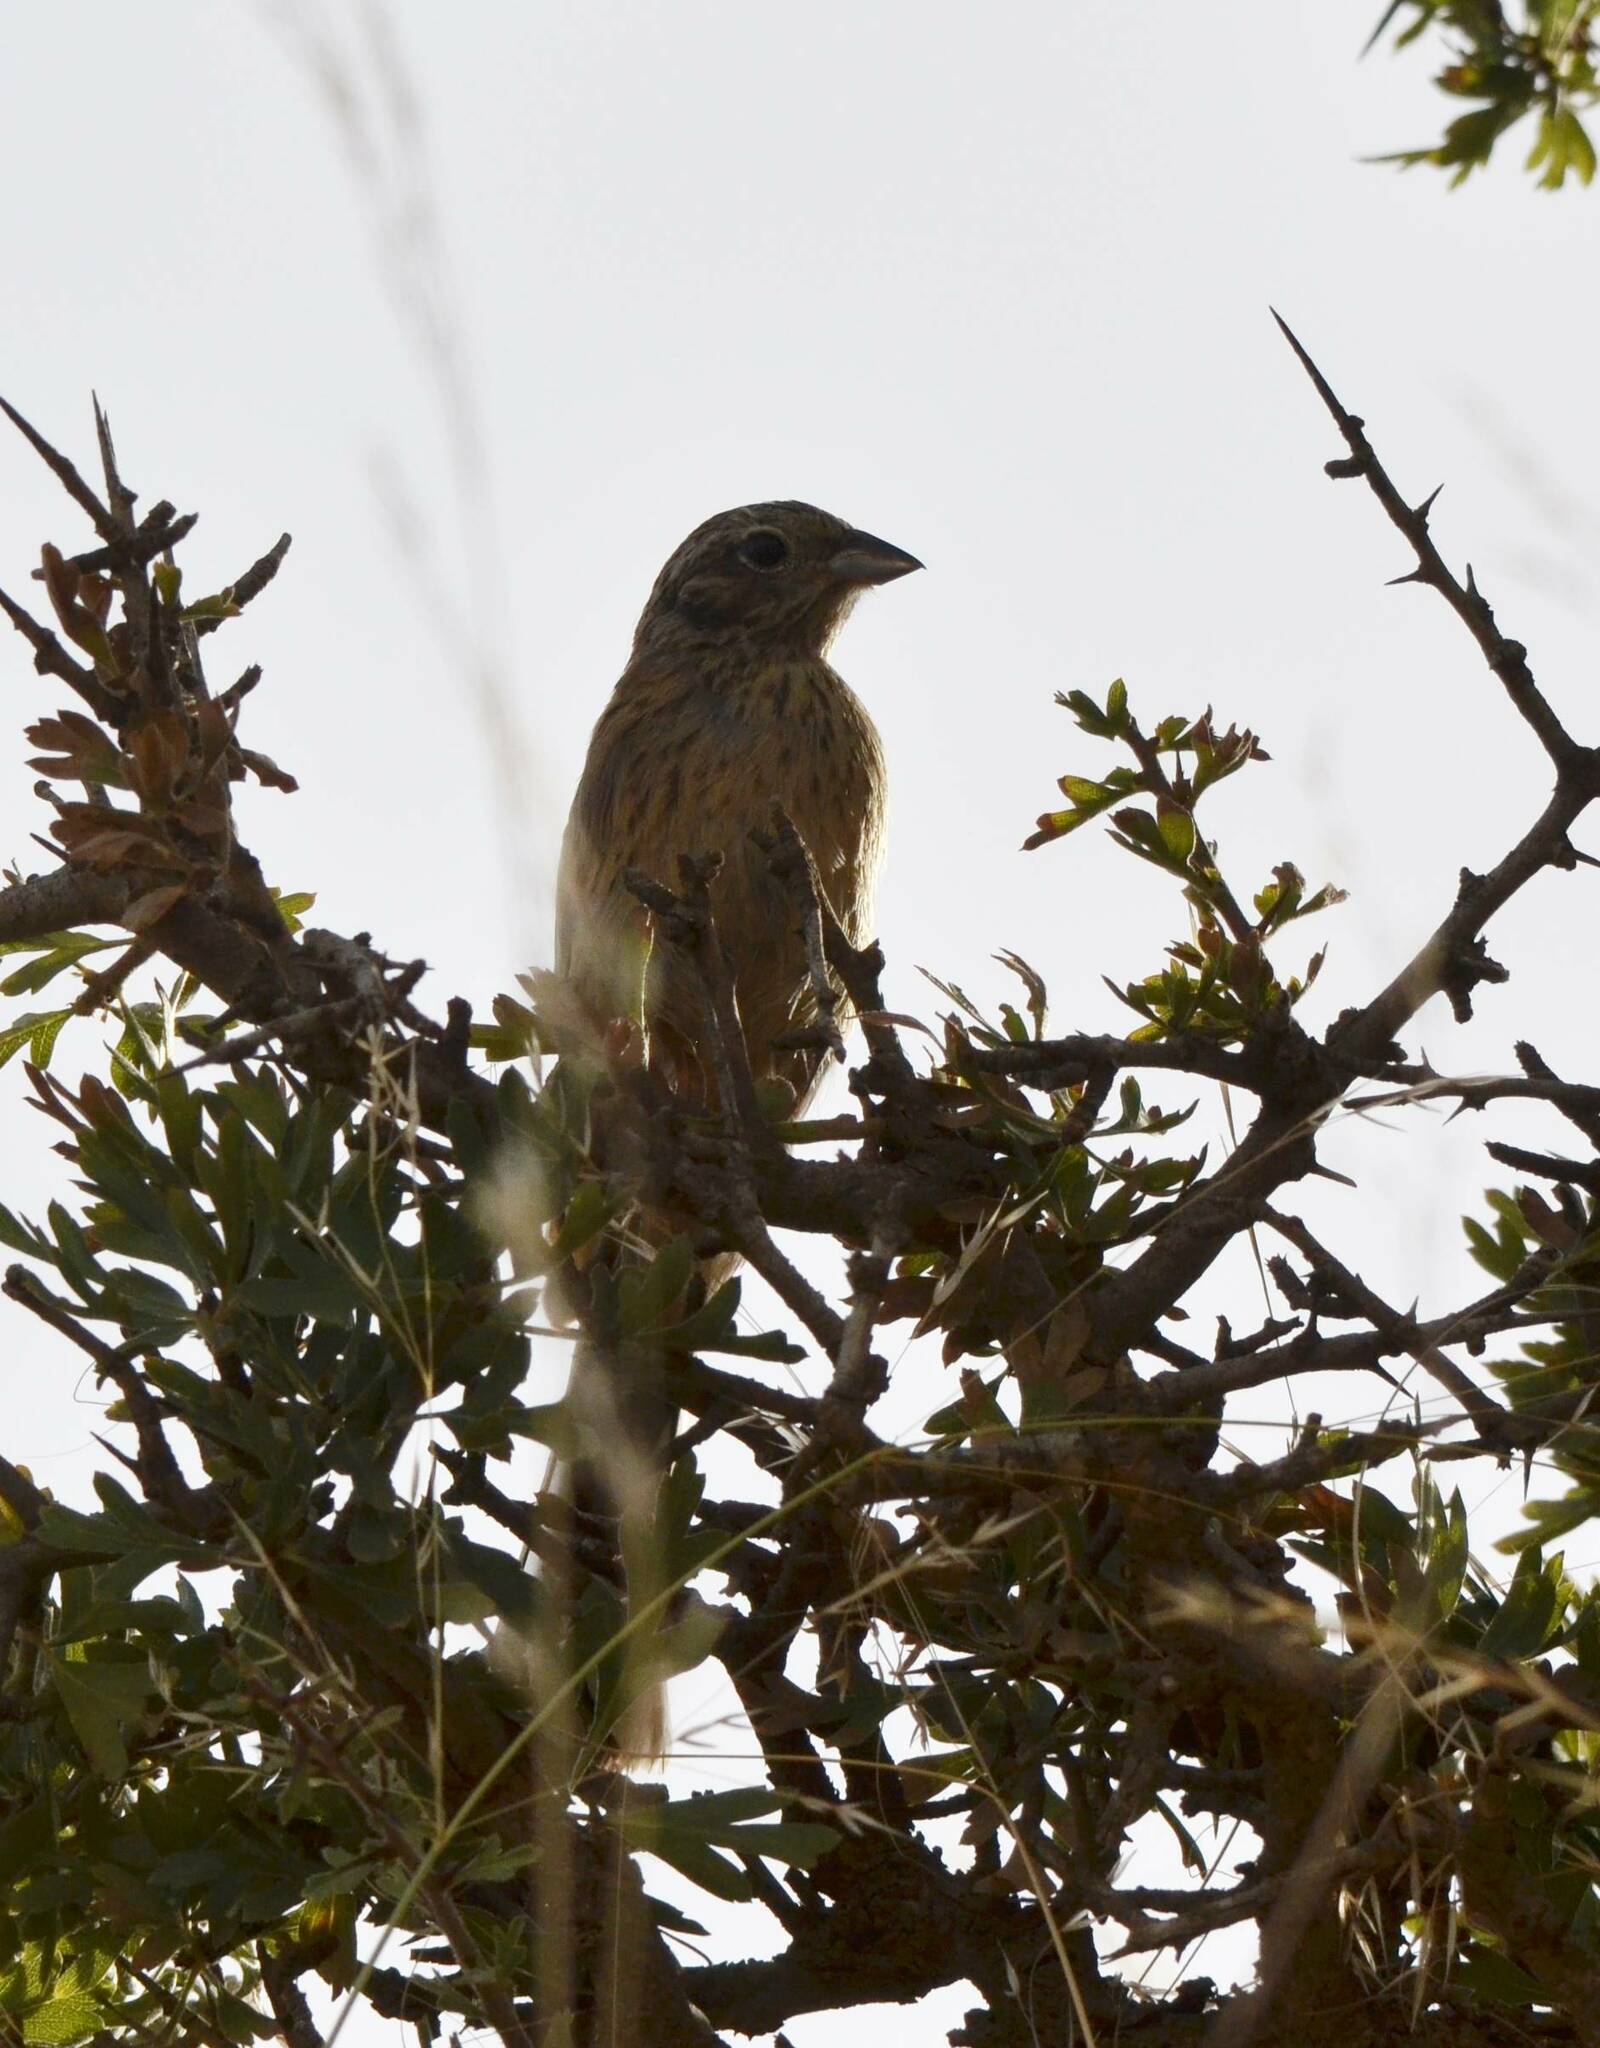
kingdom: Animalia
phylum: Chordata
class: Aves
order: Passeriformes
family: Emberizidae
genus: Emberiza
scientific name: Emberiza cia
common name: Rock bunting
